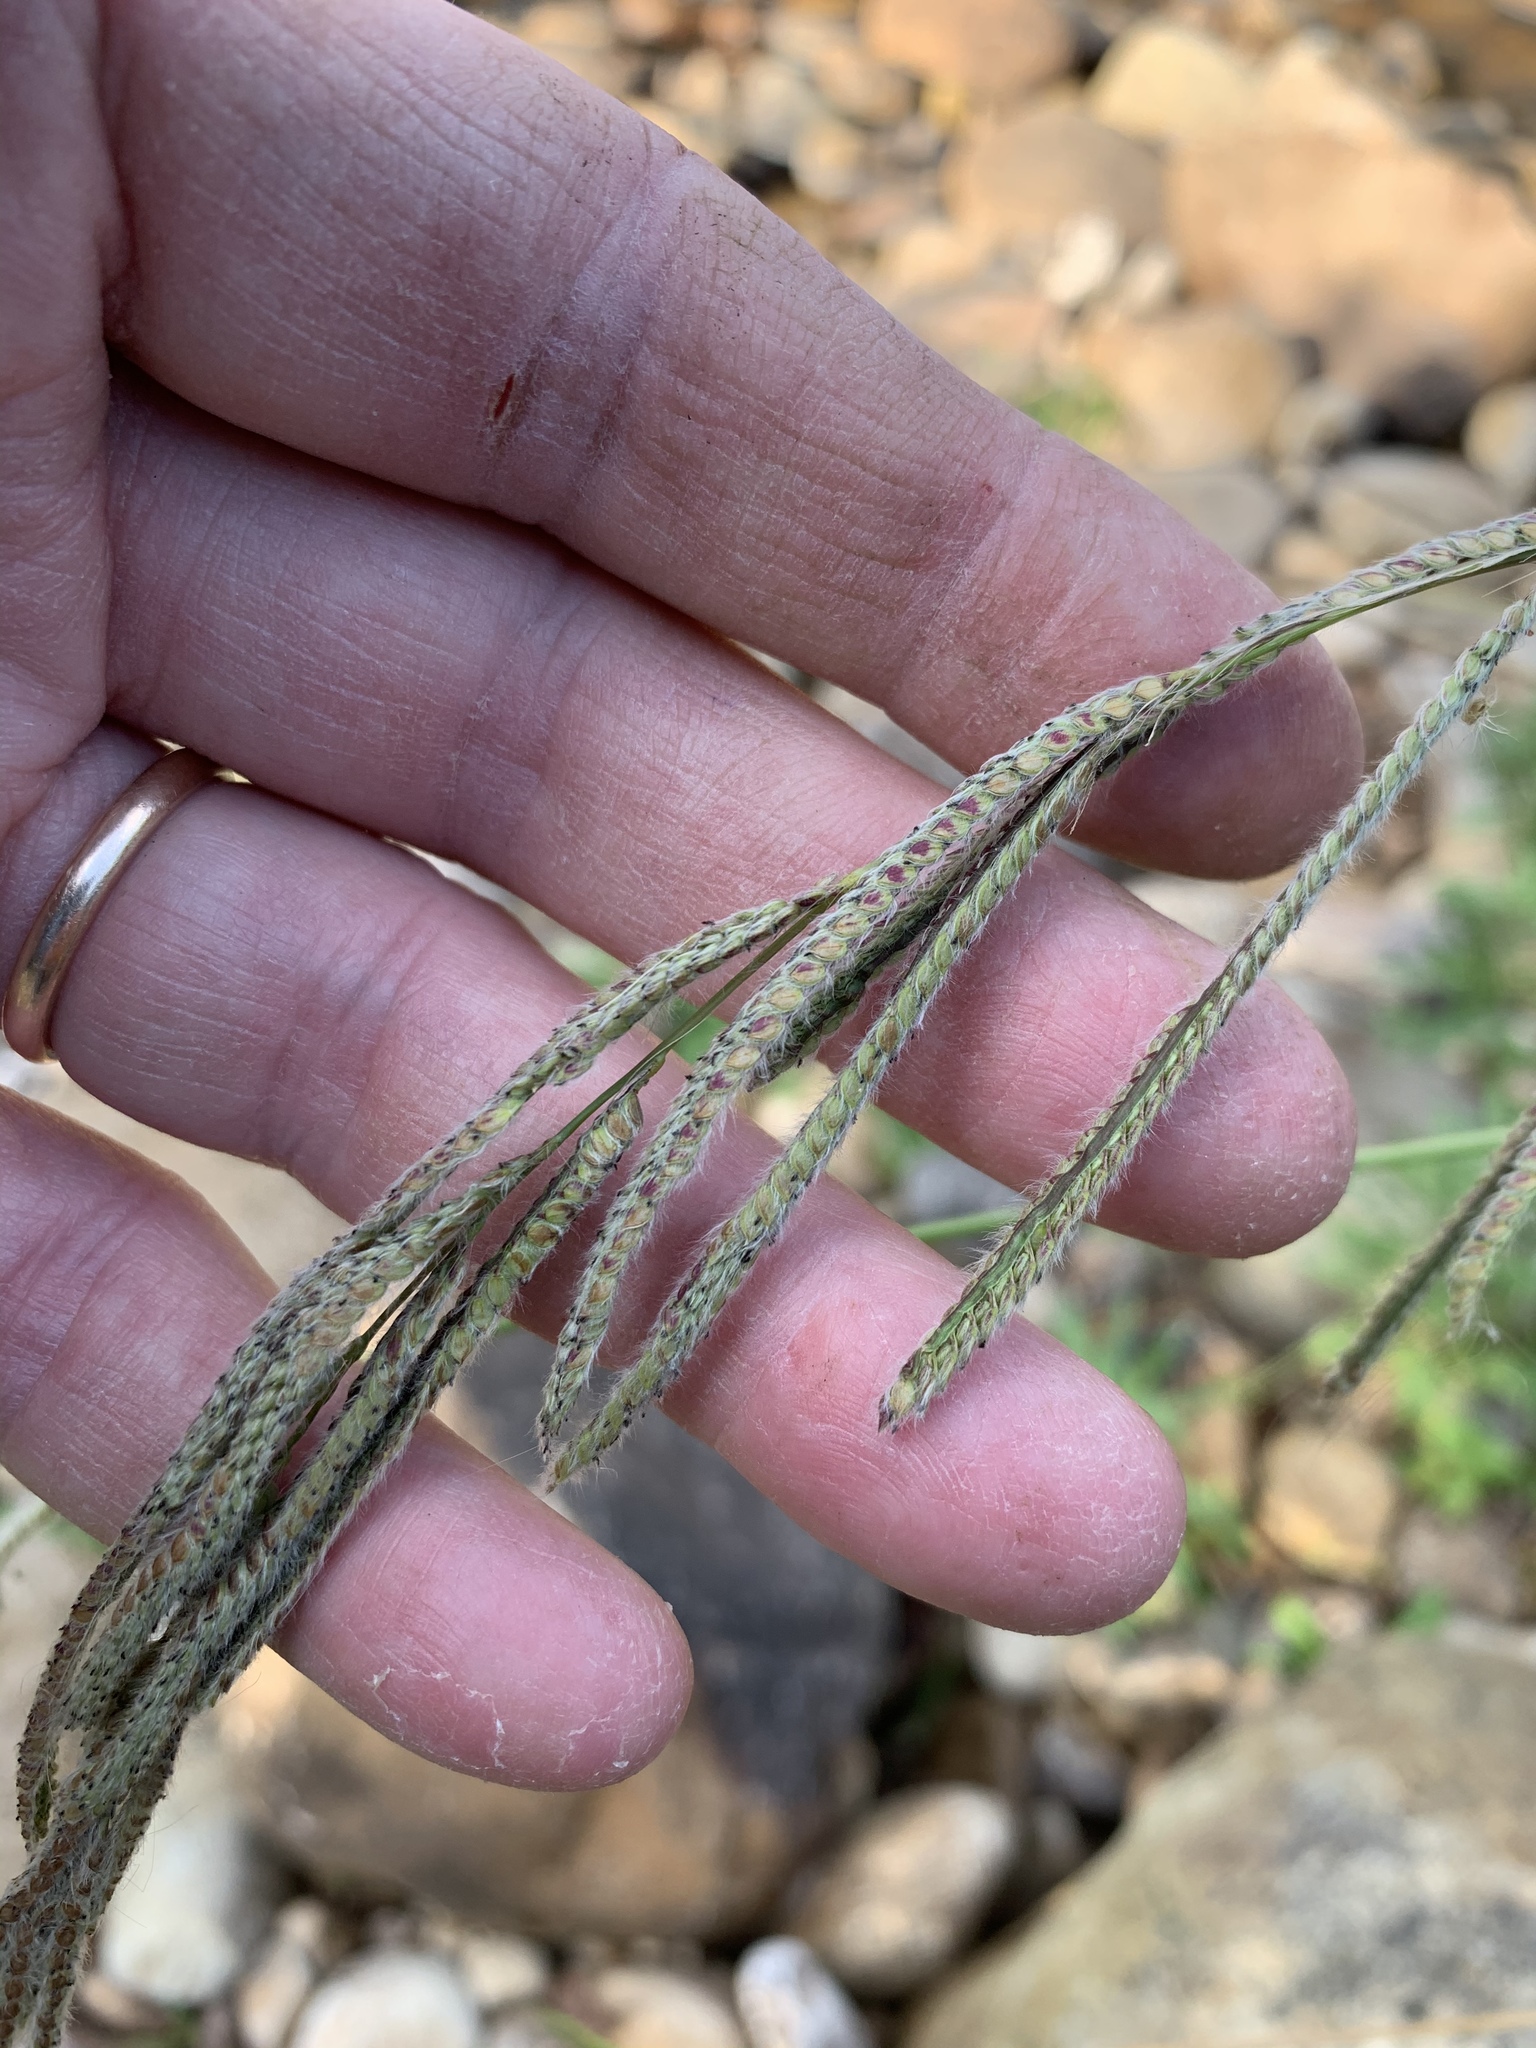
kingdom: Plantae
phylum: Tracheophyta
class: Liliopsida
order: Poales
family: Poaceae
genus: Paspalum
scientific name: Paspalum urvillei
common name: Vasey's grass
